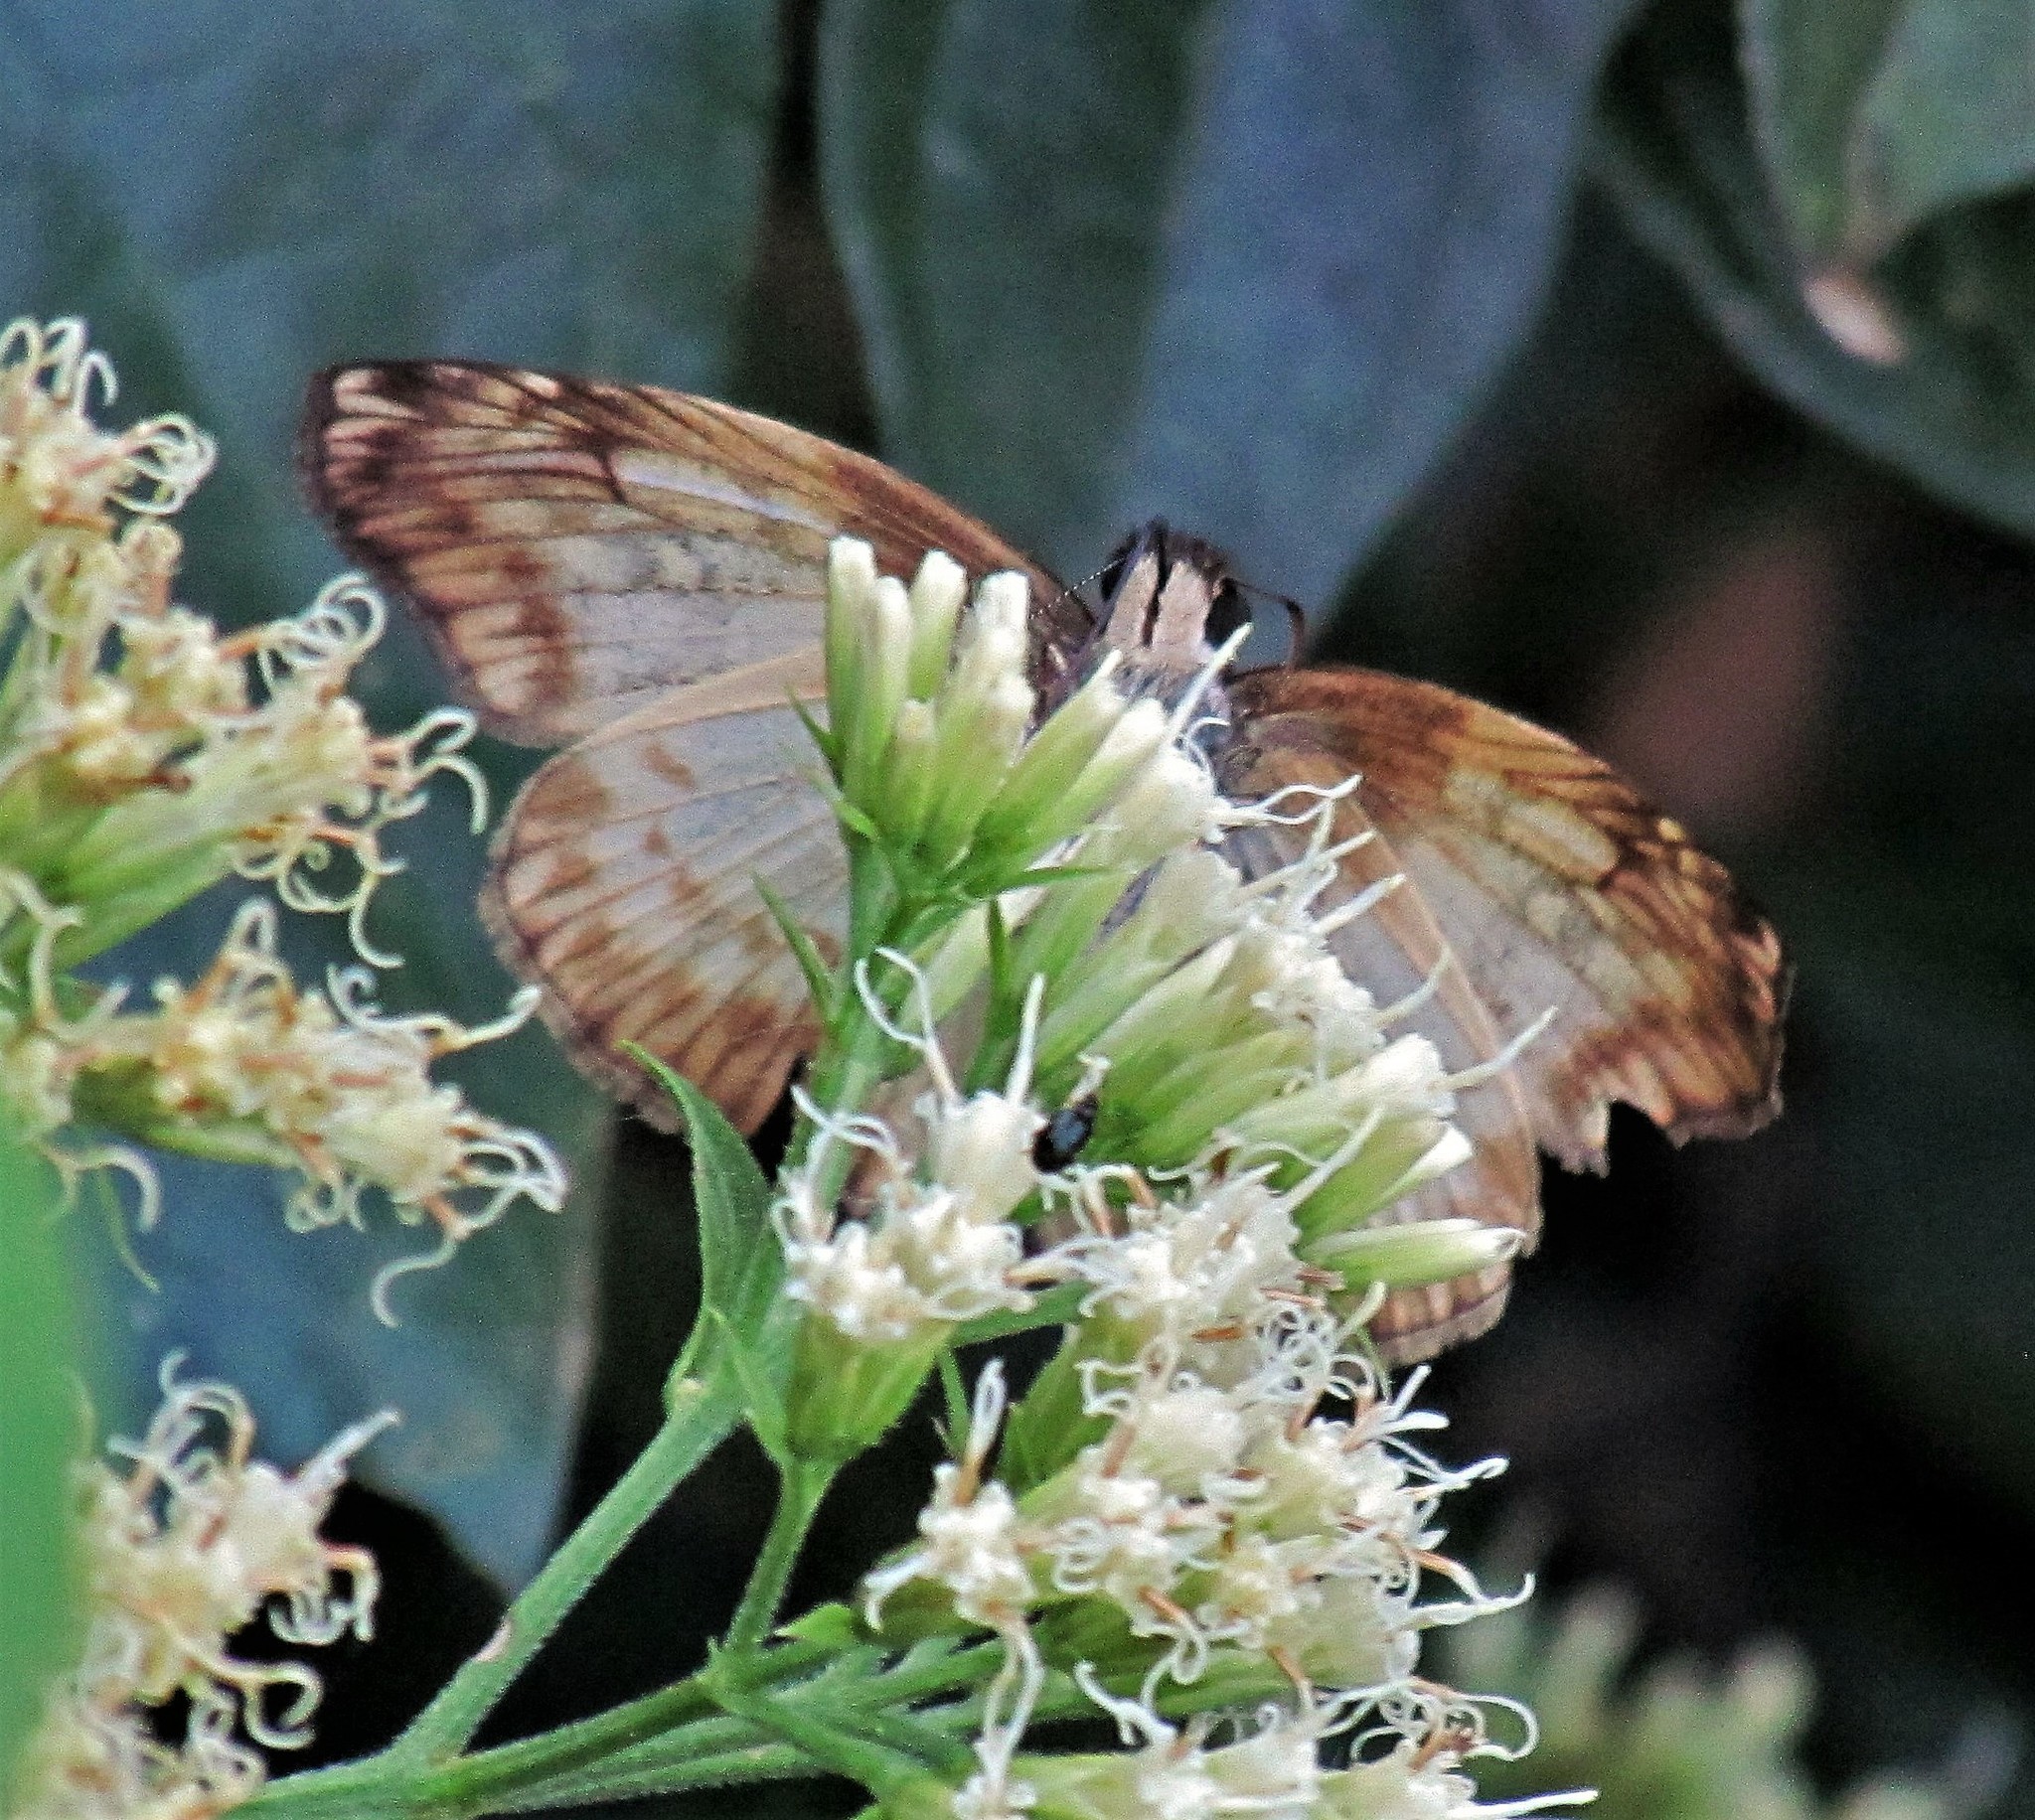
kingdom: Animalia
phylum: Arthropoda
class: Insecta
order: Lepidoptera
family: Hesperiidae
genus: Mylon
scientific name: Mylon maimon
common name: Common mylon
